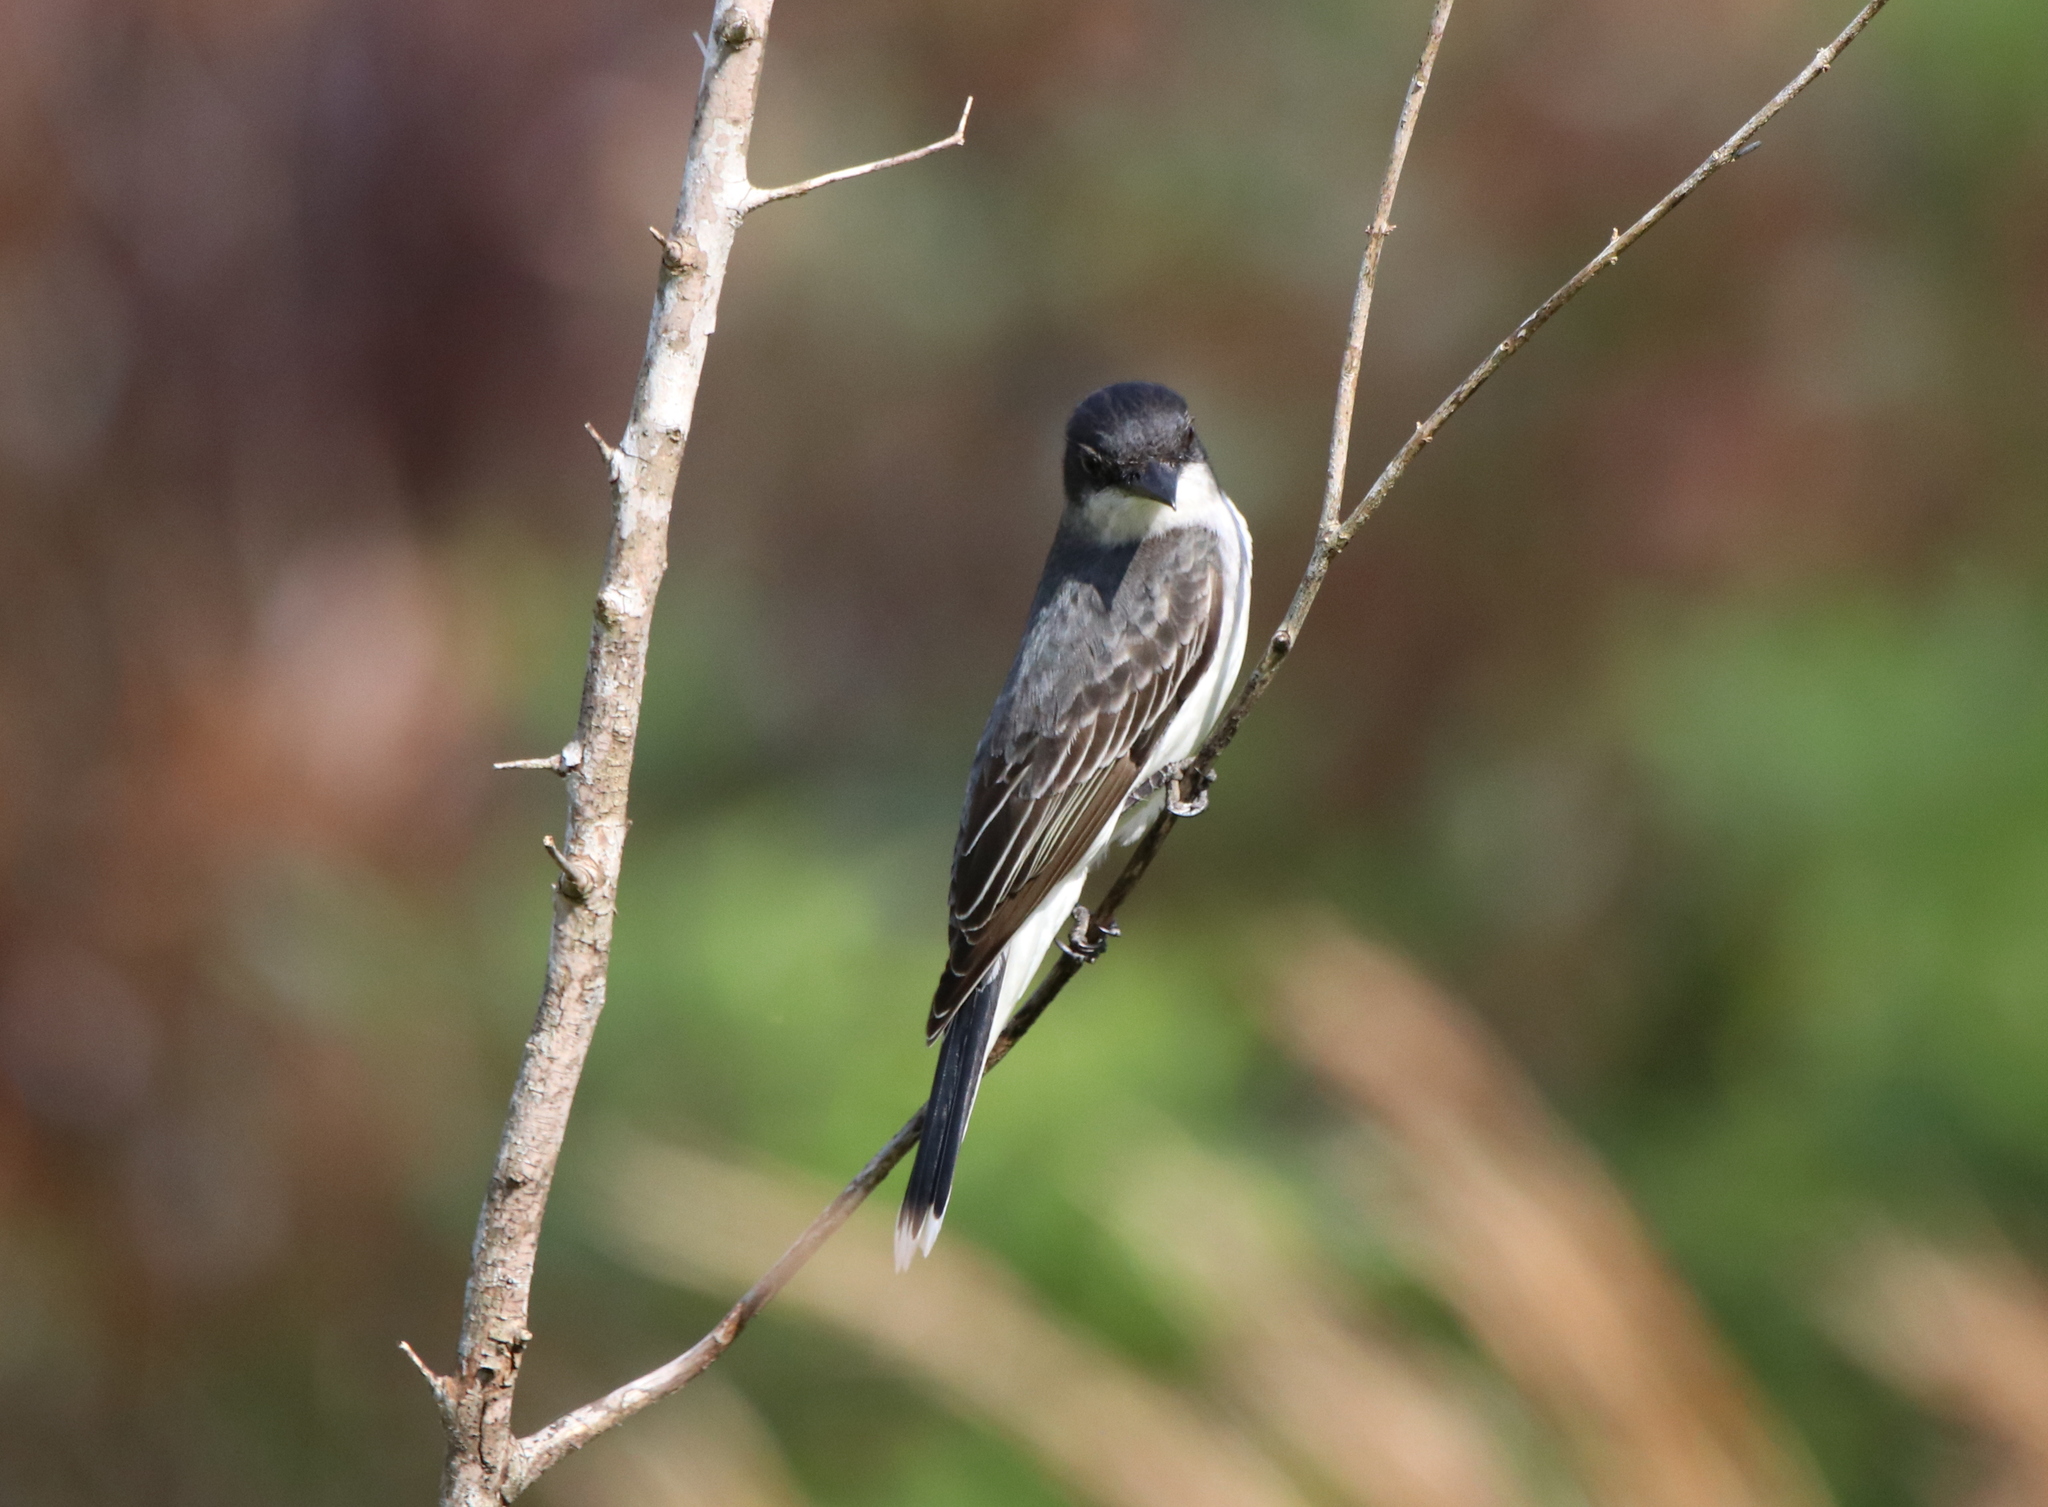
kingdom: Animalia
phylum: Chordata
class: Aves
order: Passeriformes
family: Tyrannidae
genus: Tyrannus
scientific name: Tyrannus tyrannus
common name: Eastern kingbird
